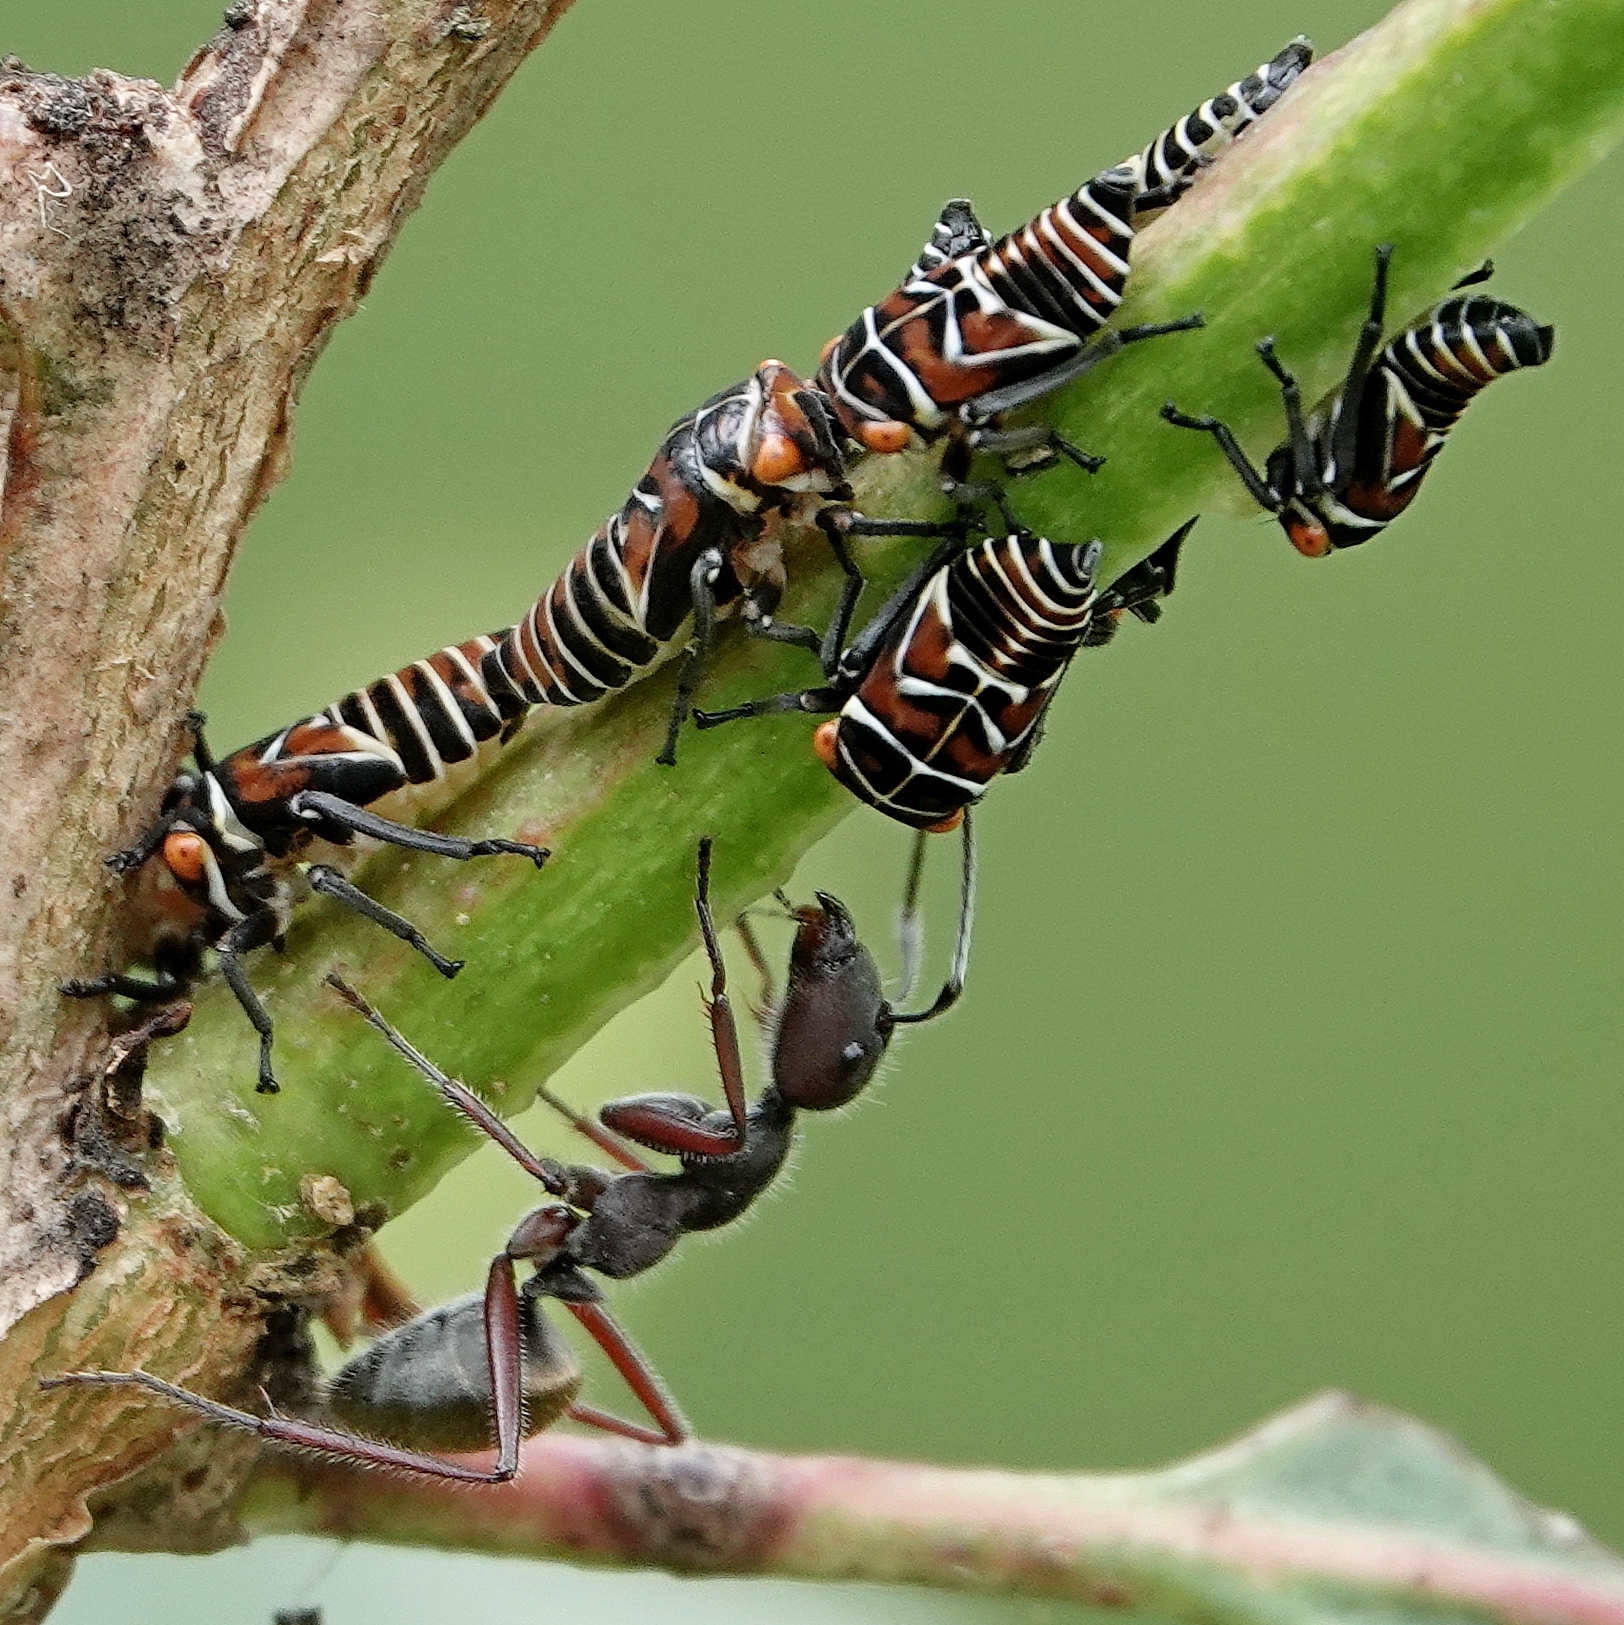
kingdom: Animalia
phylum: Arthropoda
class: Insecta
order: Hemiptera
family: Cicadellidae
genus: Eurymeloides
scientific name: Eurymeloides punctata
